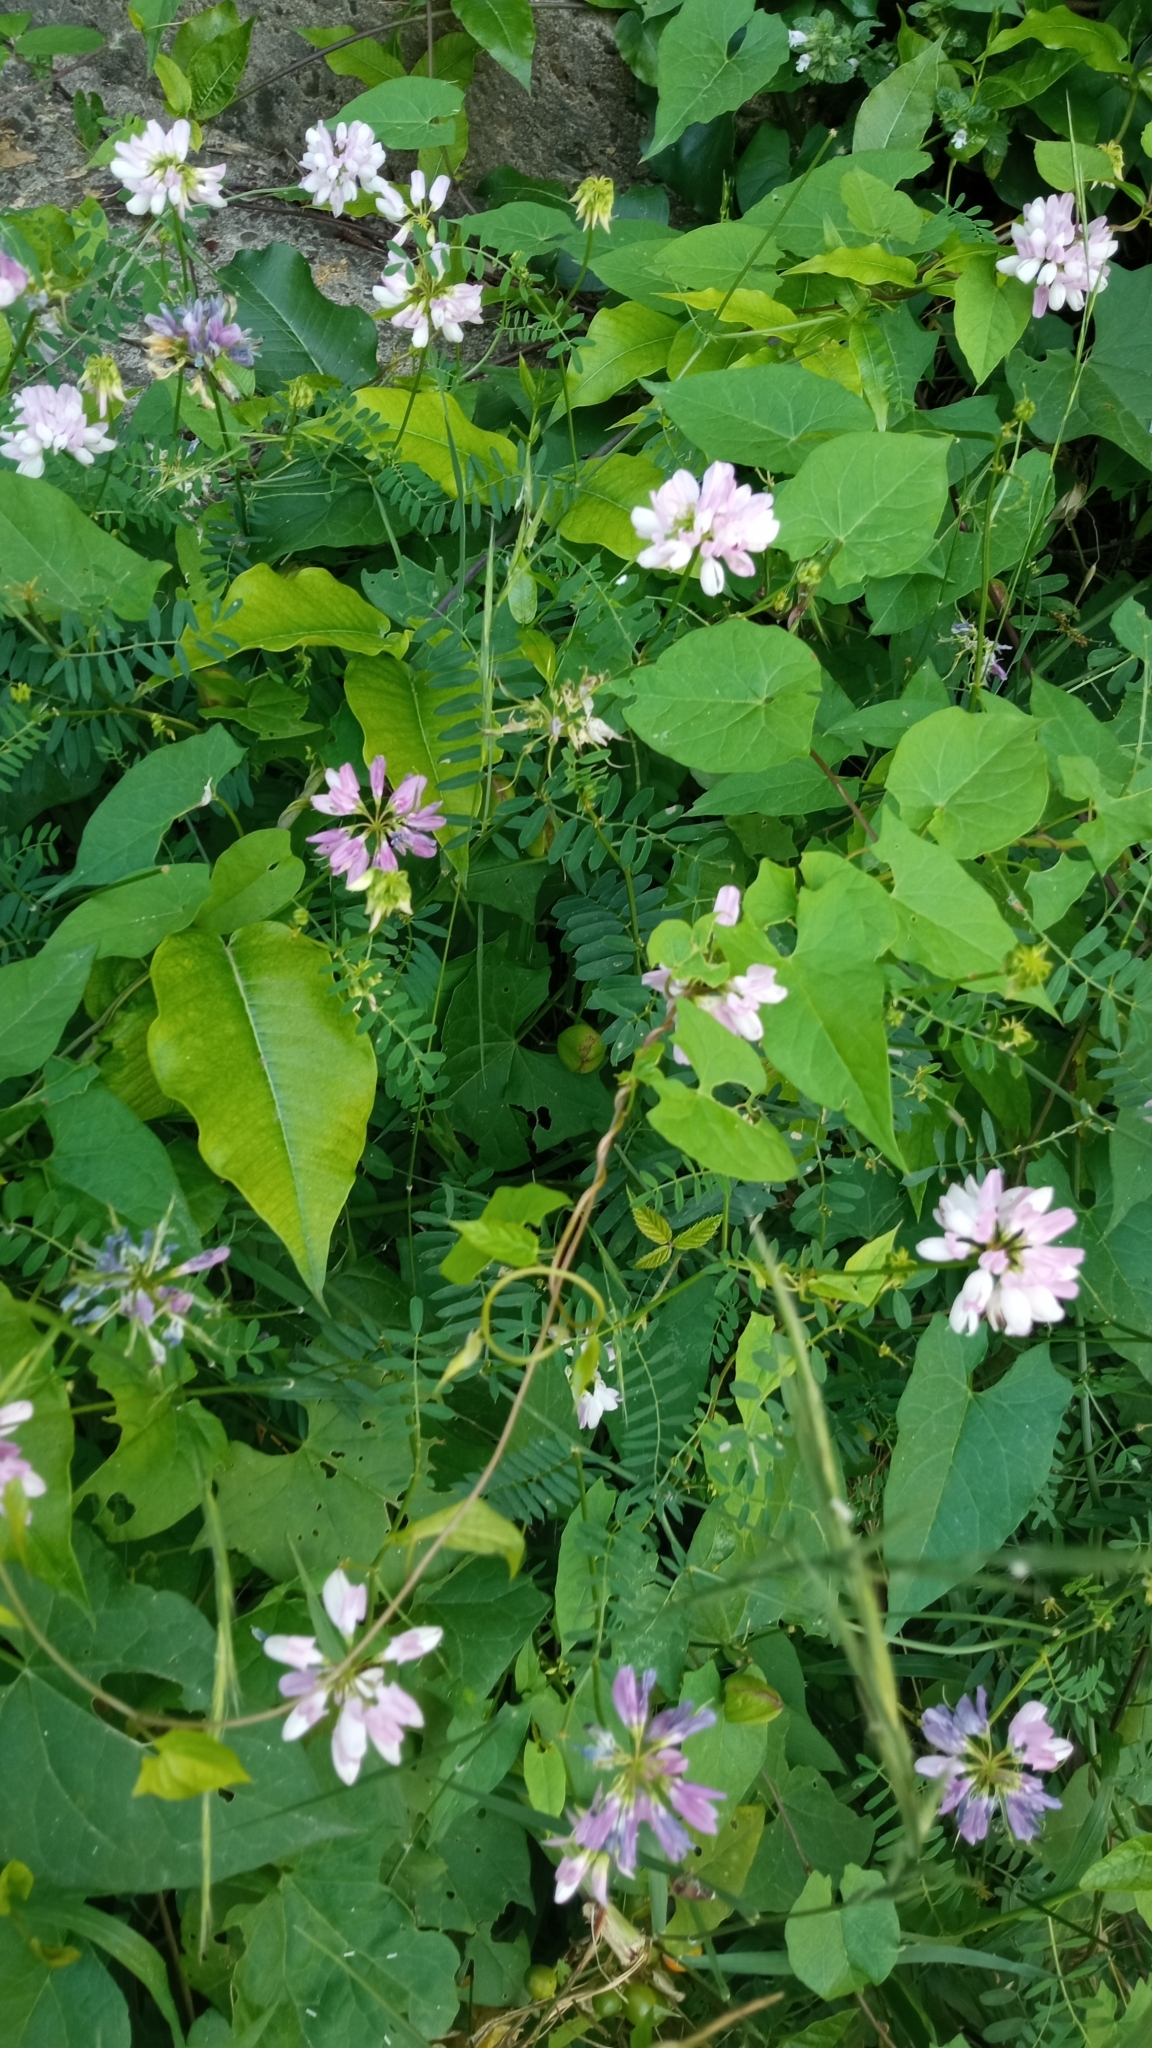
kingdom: Plantae
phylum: Tracheophyta
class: Magnoliopsida
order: Fabales
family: Fabaceae
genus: Coronilla
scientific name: Coronilla varia
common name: Crownvetch
